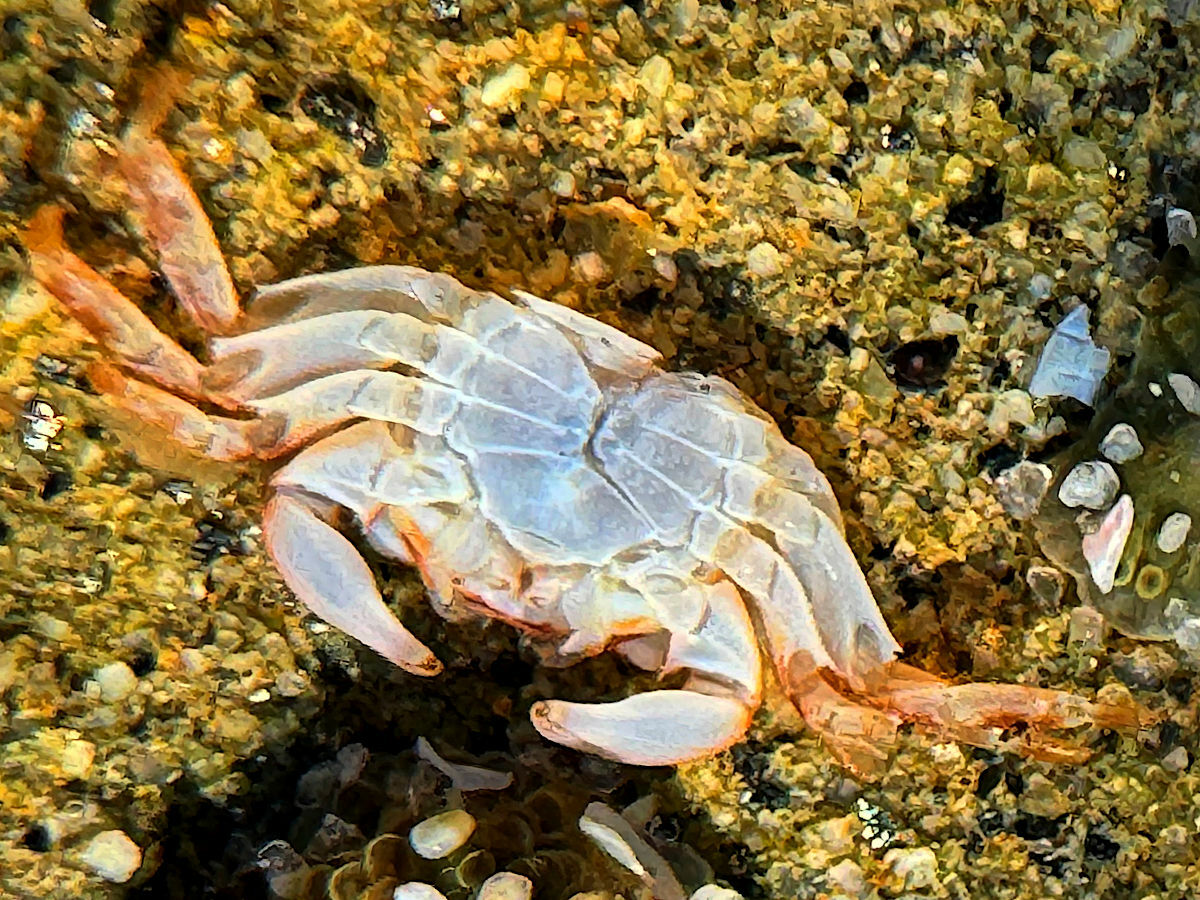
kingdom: Animalia
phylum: Arthropoda
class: Malacostraca
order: Decapoda
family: Grapsidae
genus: Pachygrapsus
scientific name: Pachygrapsus crassipes
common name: Striped shore crab
